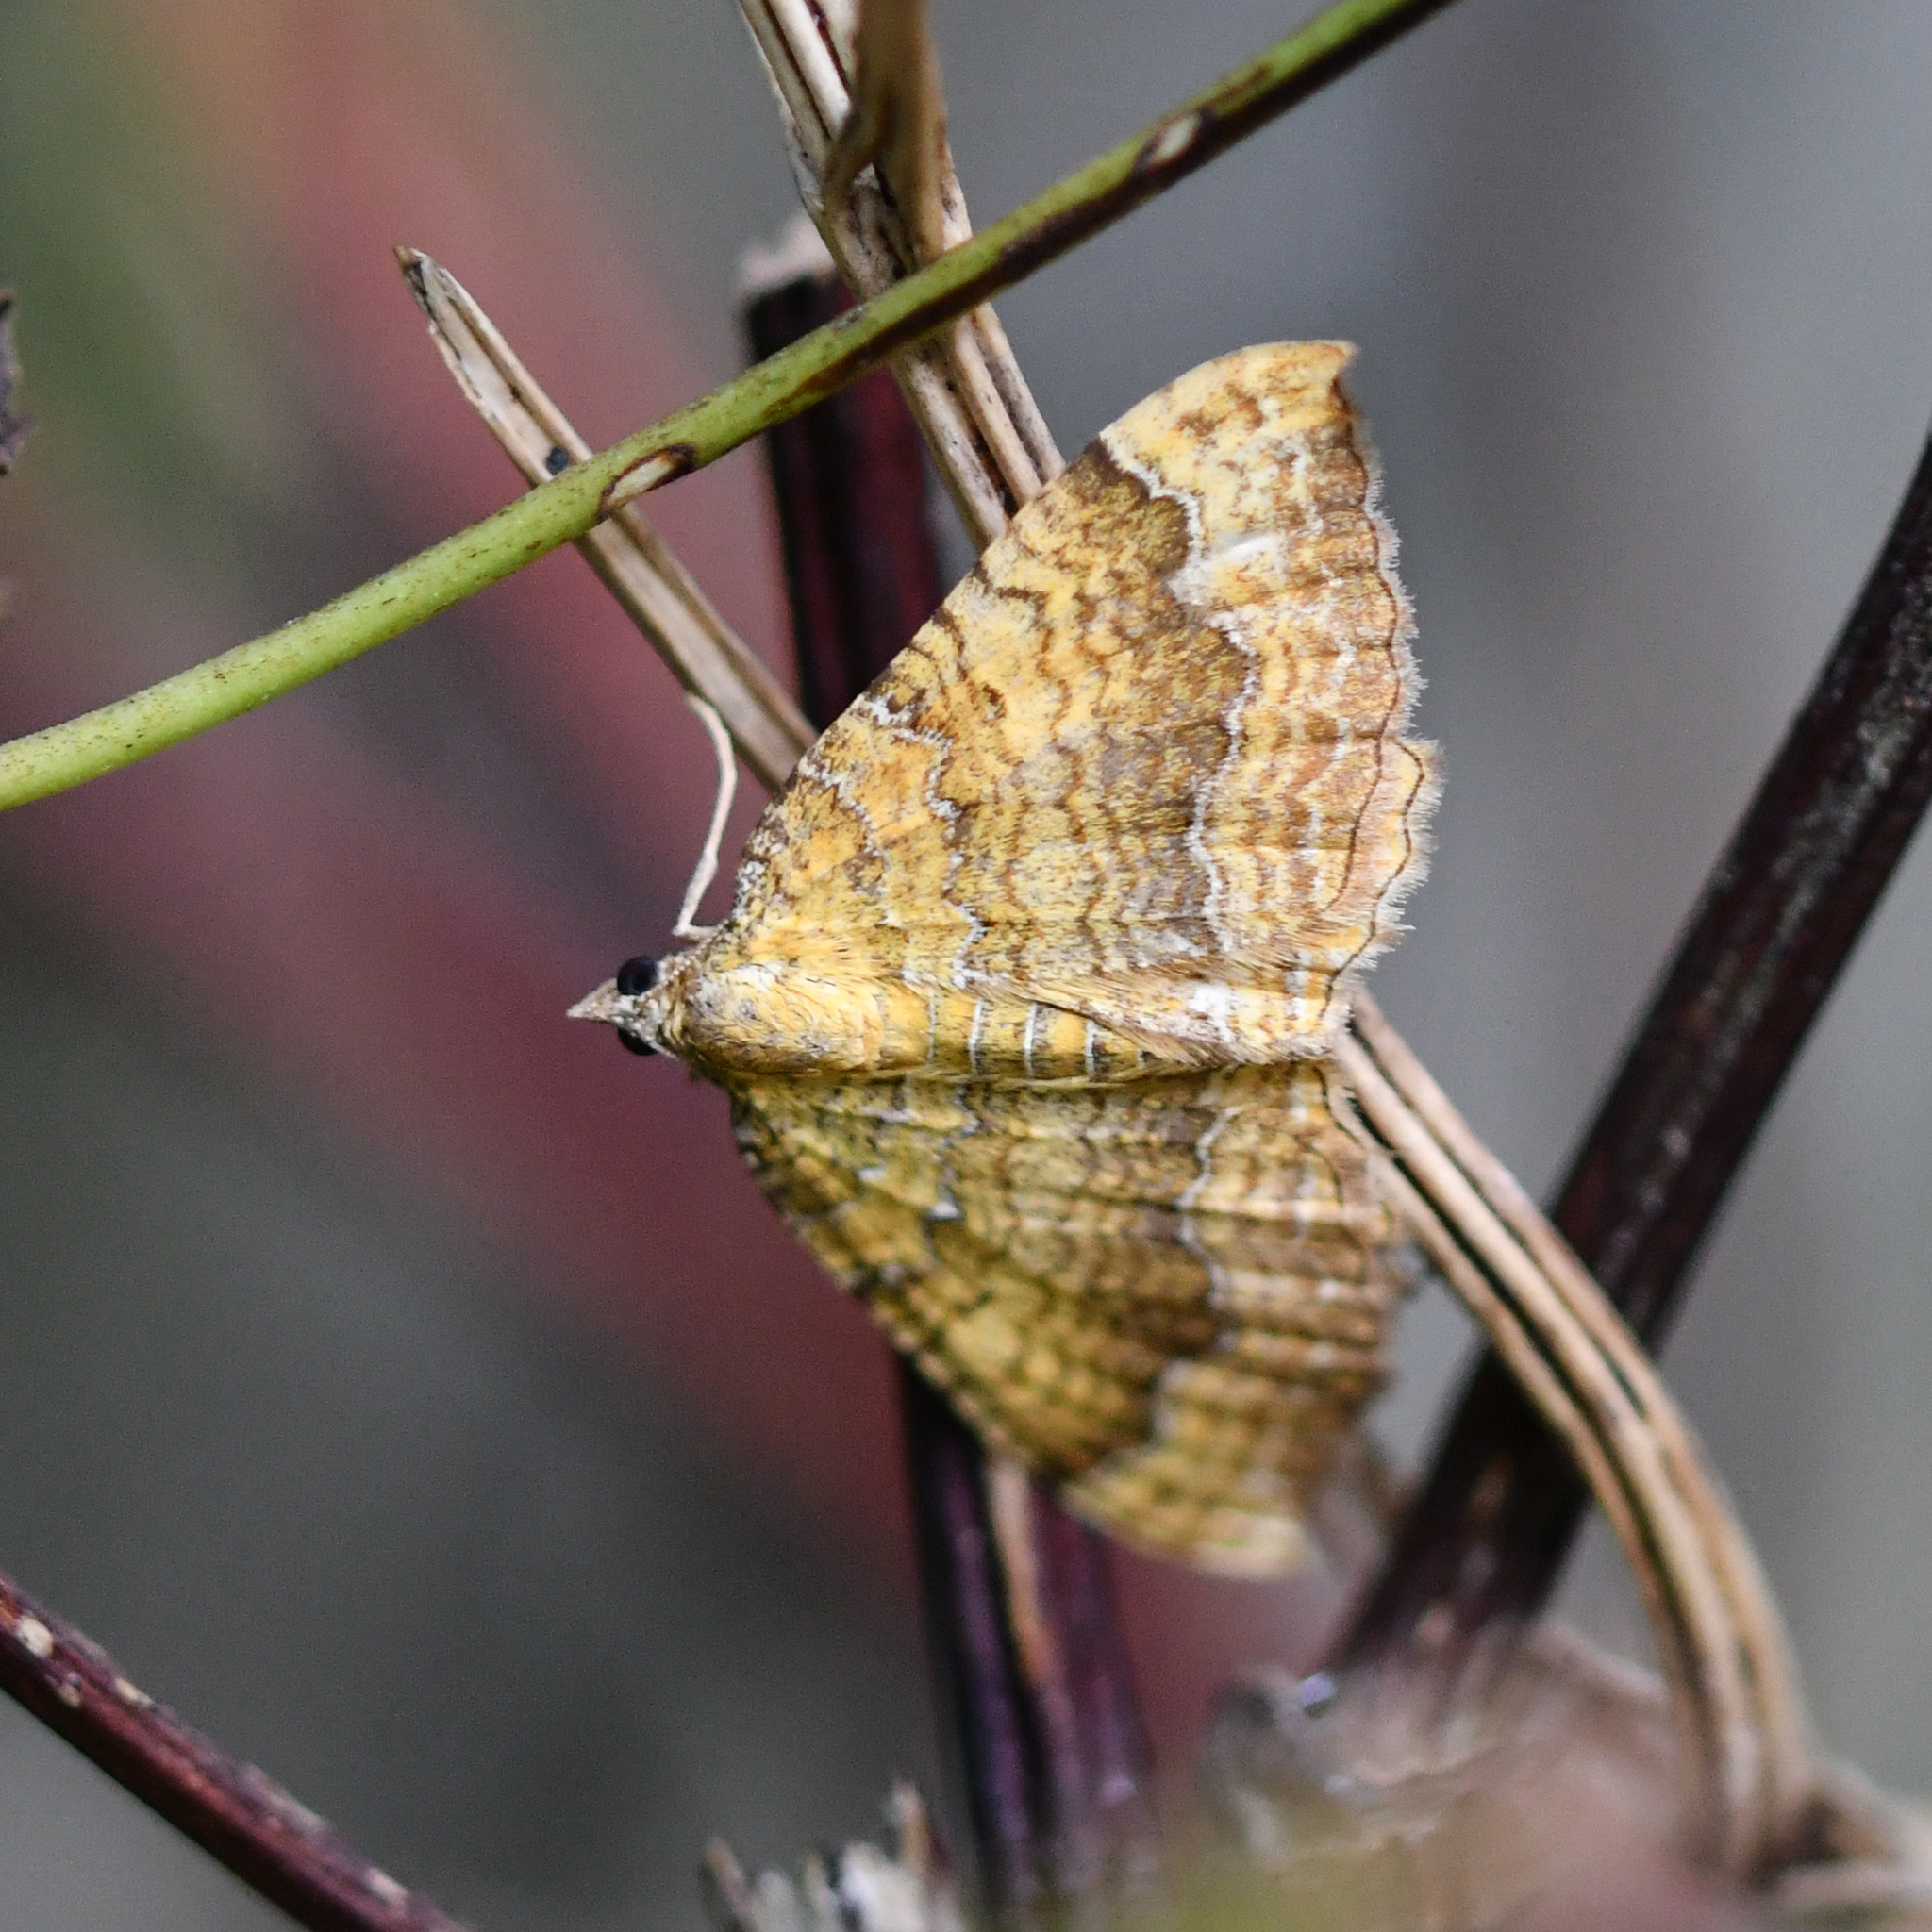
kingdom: Animalia
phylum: Arthropoda
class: Insecta
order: Lepidoptera
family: Geometridae
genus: Camptogramma
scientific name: Camptogramma bilineata
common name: Yellow shell
